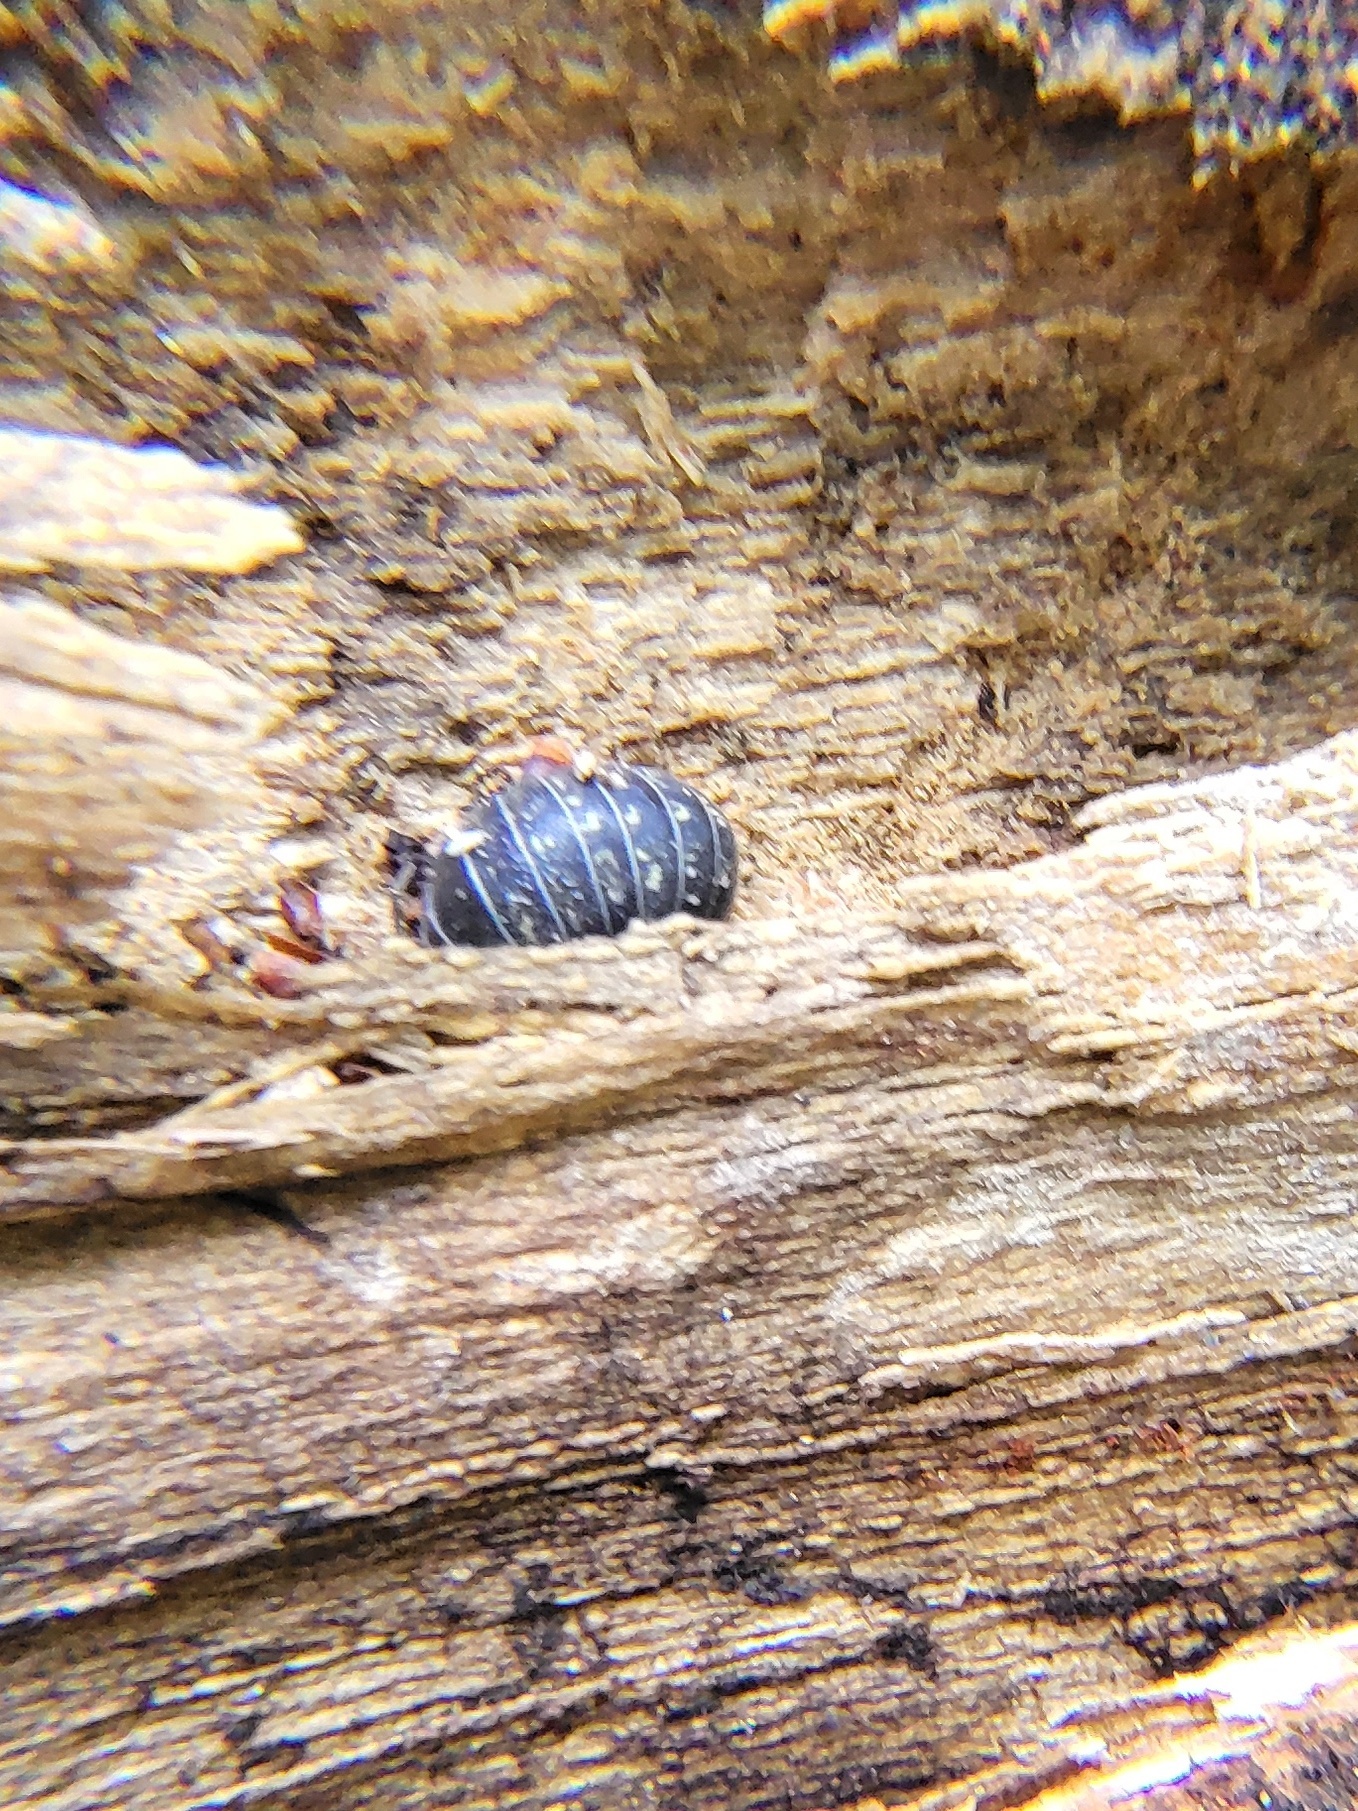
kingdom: Animalia
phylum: Arthropoda
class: Malacostraca
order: Isopoda
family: Armadillidiidae
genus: Armadillidium
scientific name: Armadillidium vulgare
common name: Common pill woodlouse
